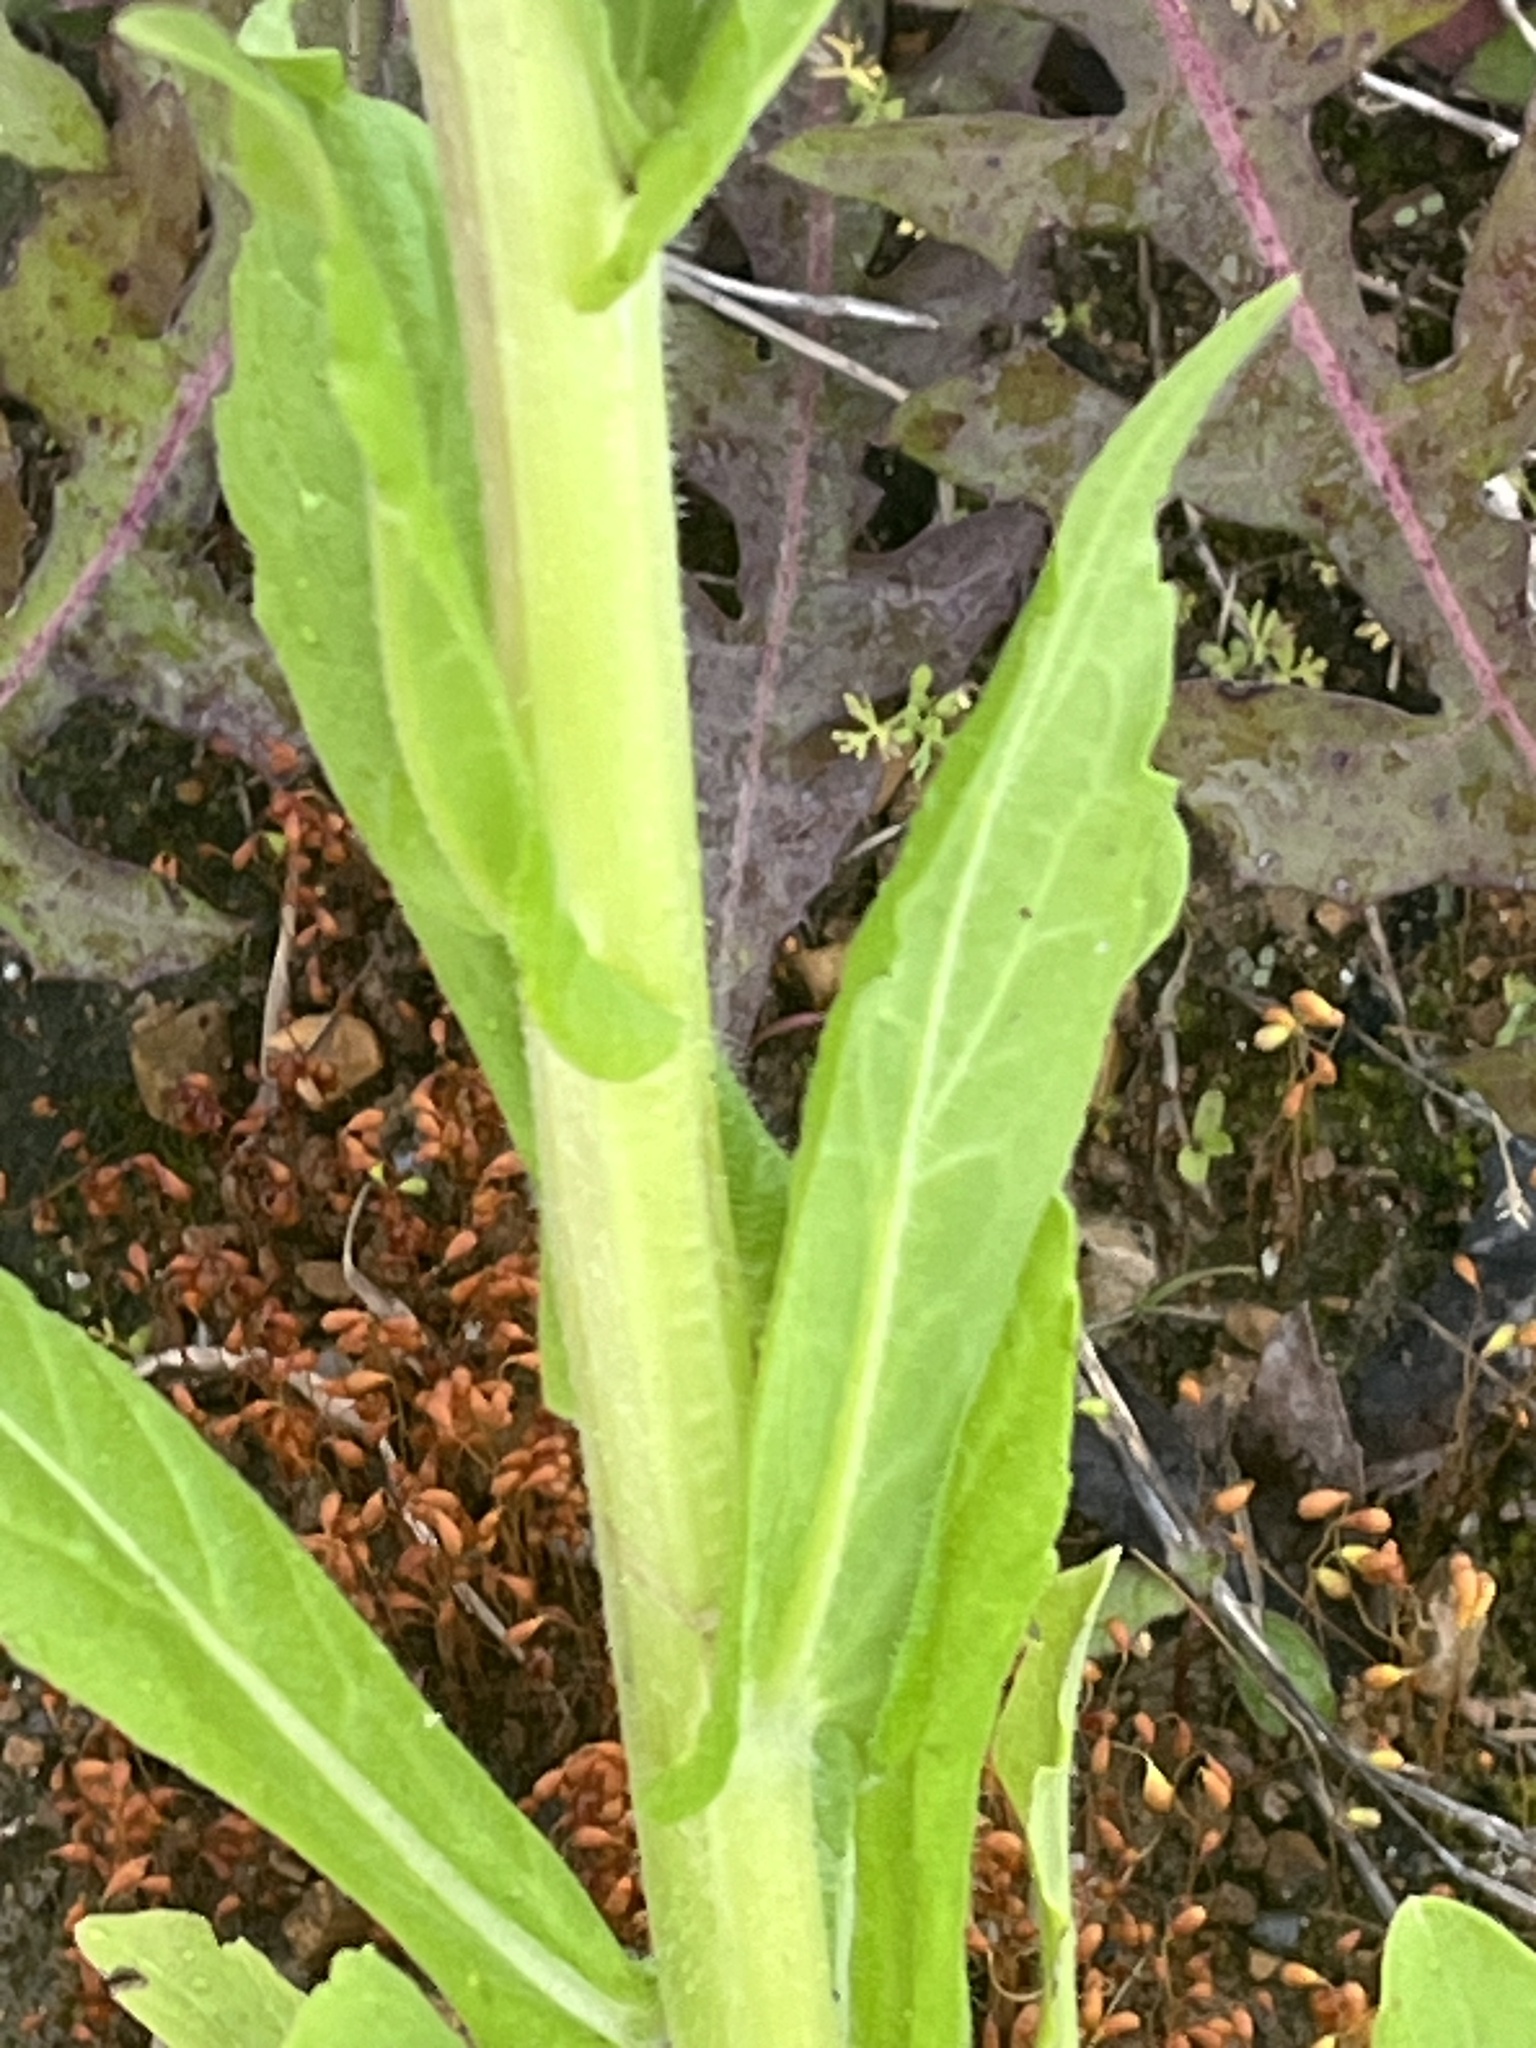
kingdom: Plantae
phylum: Tracheophyta
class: Magnoliopsida
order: Asterales
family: Asteraceae
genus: Erigeron
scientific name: Erigeron philadelphicus
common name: Robin's-plantain
